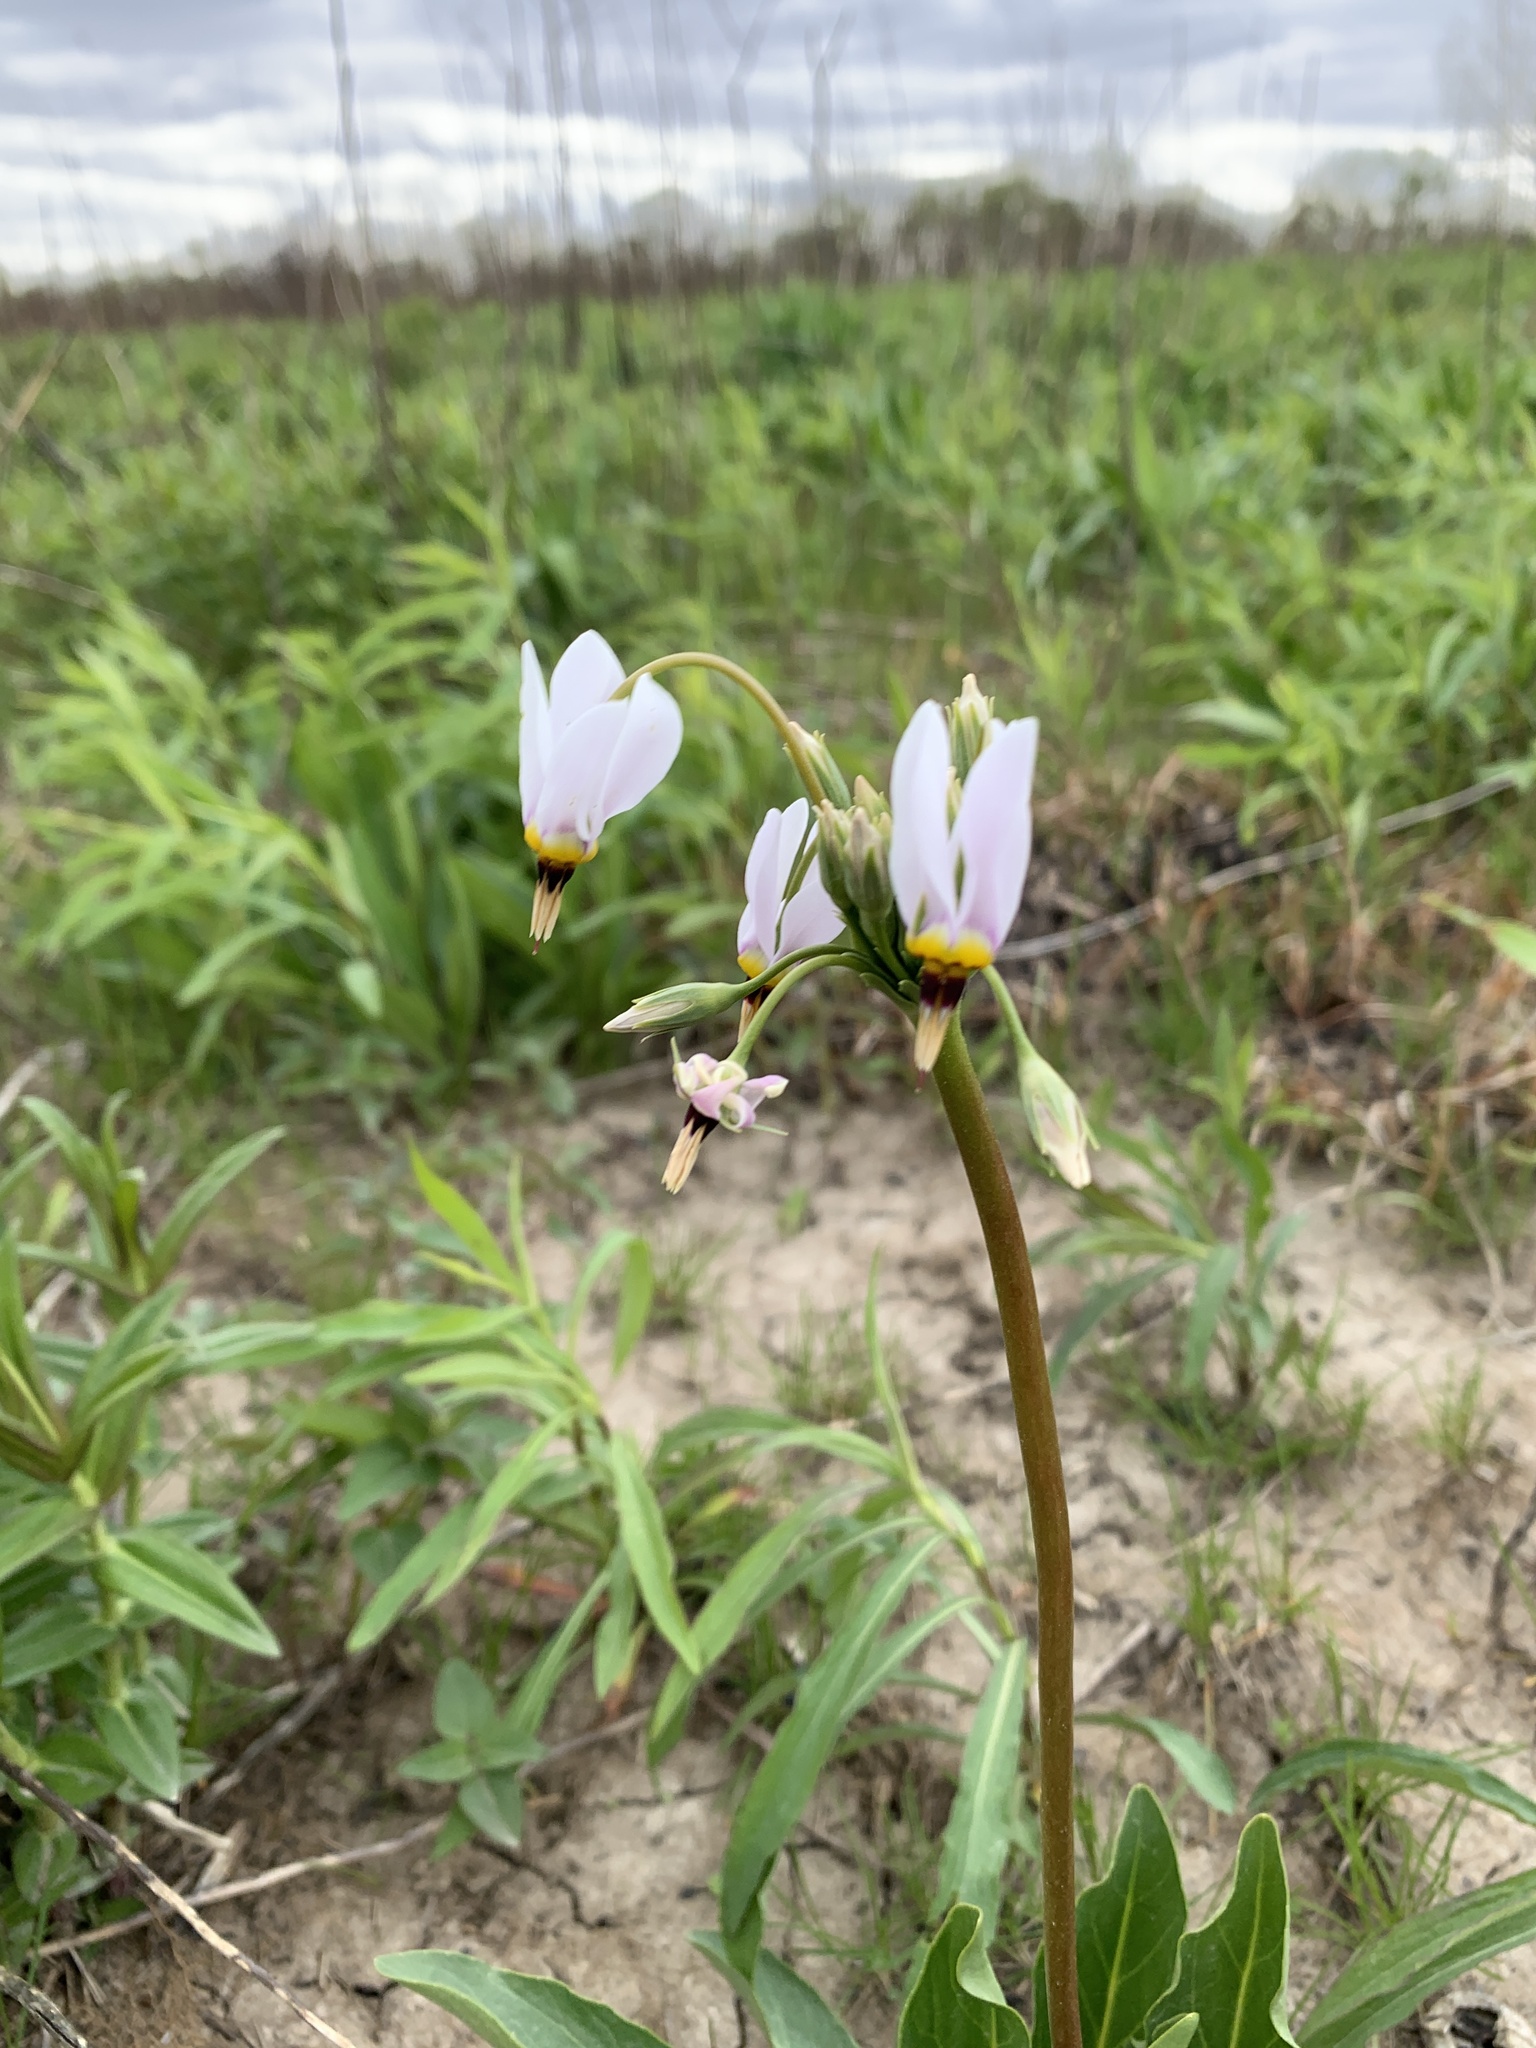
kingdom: Plantae
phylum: Tracheophyta
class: Magnoliopsida
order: Ericales
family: Primulaceae
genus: Dodecatheon
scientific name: Dodecatheon meadia
